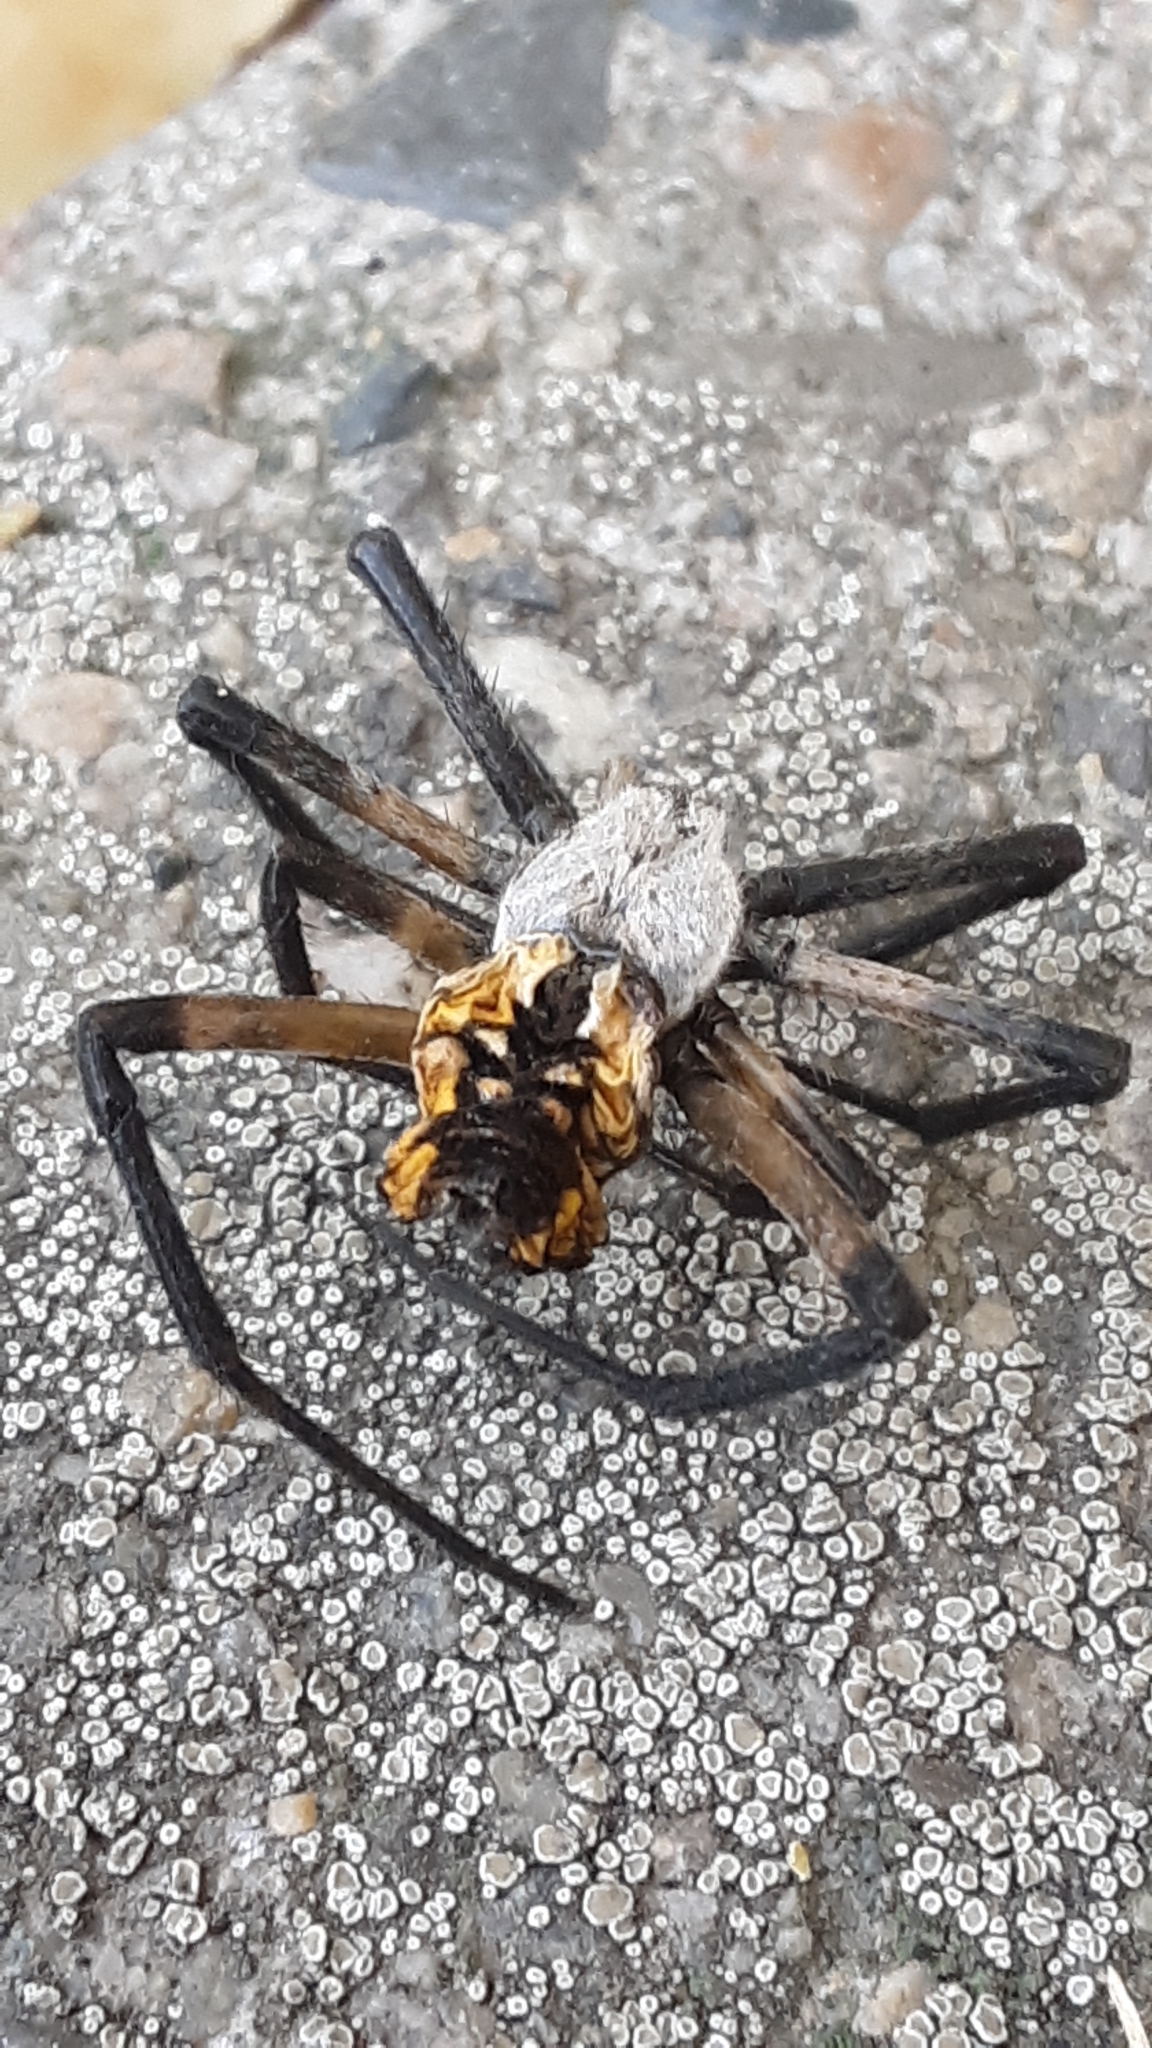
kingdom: Animalia
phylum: Arthropoda
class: Arachnida
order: Araneae
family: Araneidae
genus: Argiope
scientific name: Argiope aurantia
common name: Orb weavers
